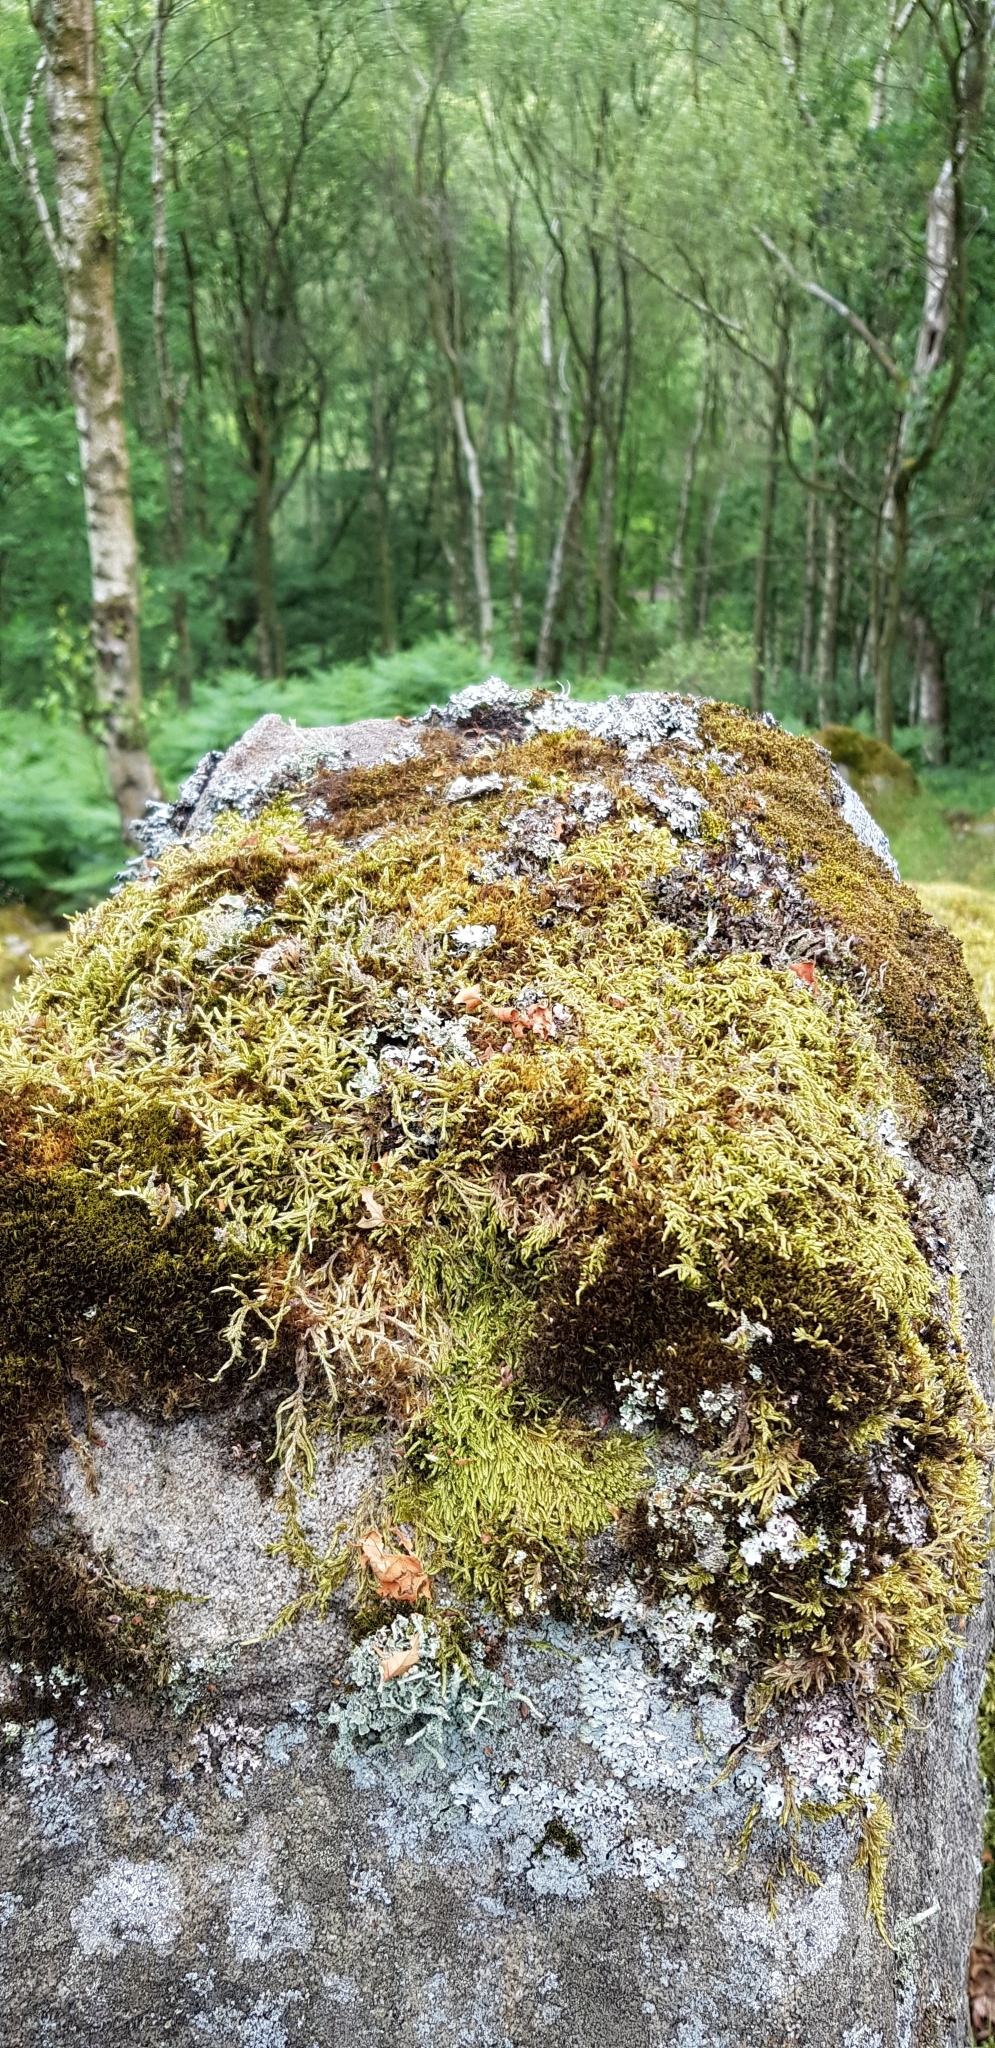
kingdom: Plantae
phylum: Marchantiophyta
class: Jungermanniopsida
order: Jungermanniales
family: Anastrophyllaceae
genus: Neoorthocaulis
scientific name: Neoorthocaulis floerkei
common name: Floerke's barbilophozia
